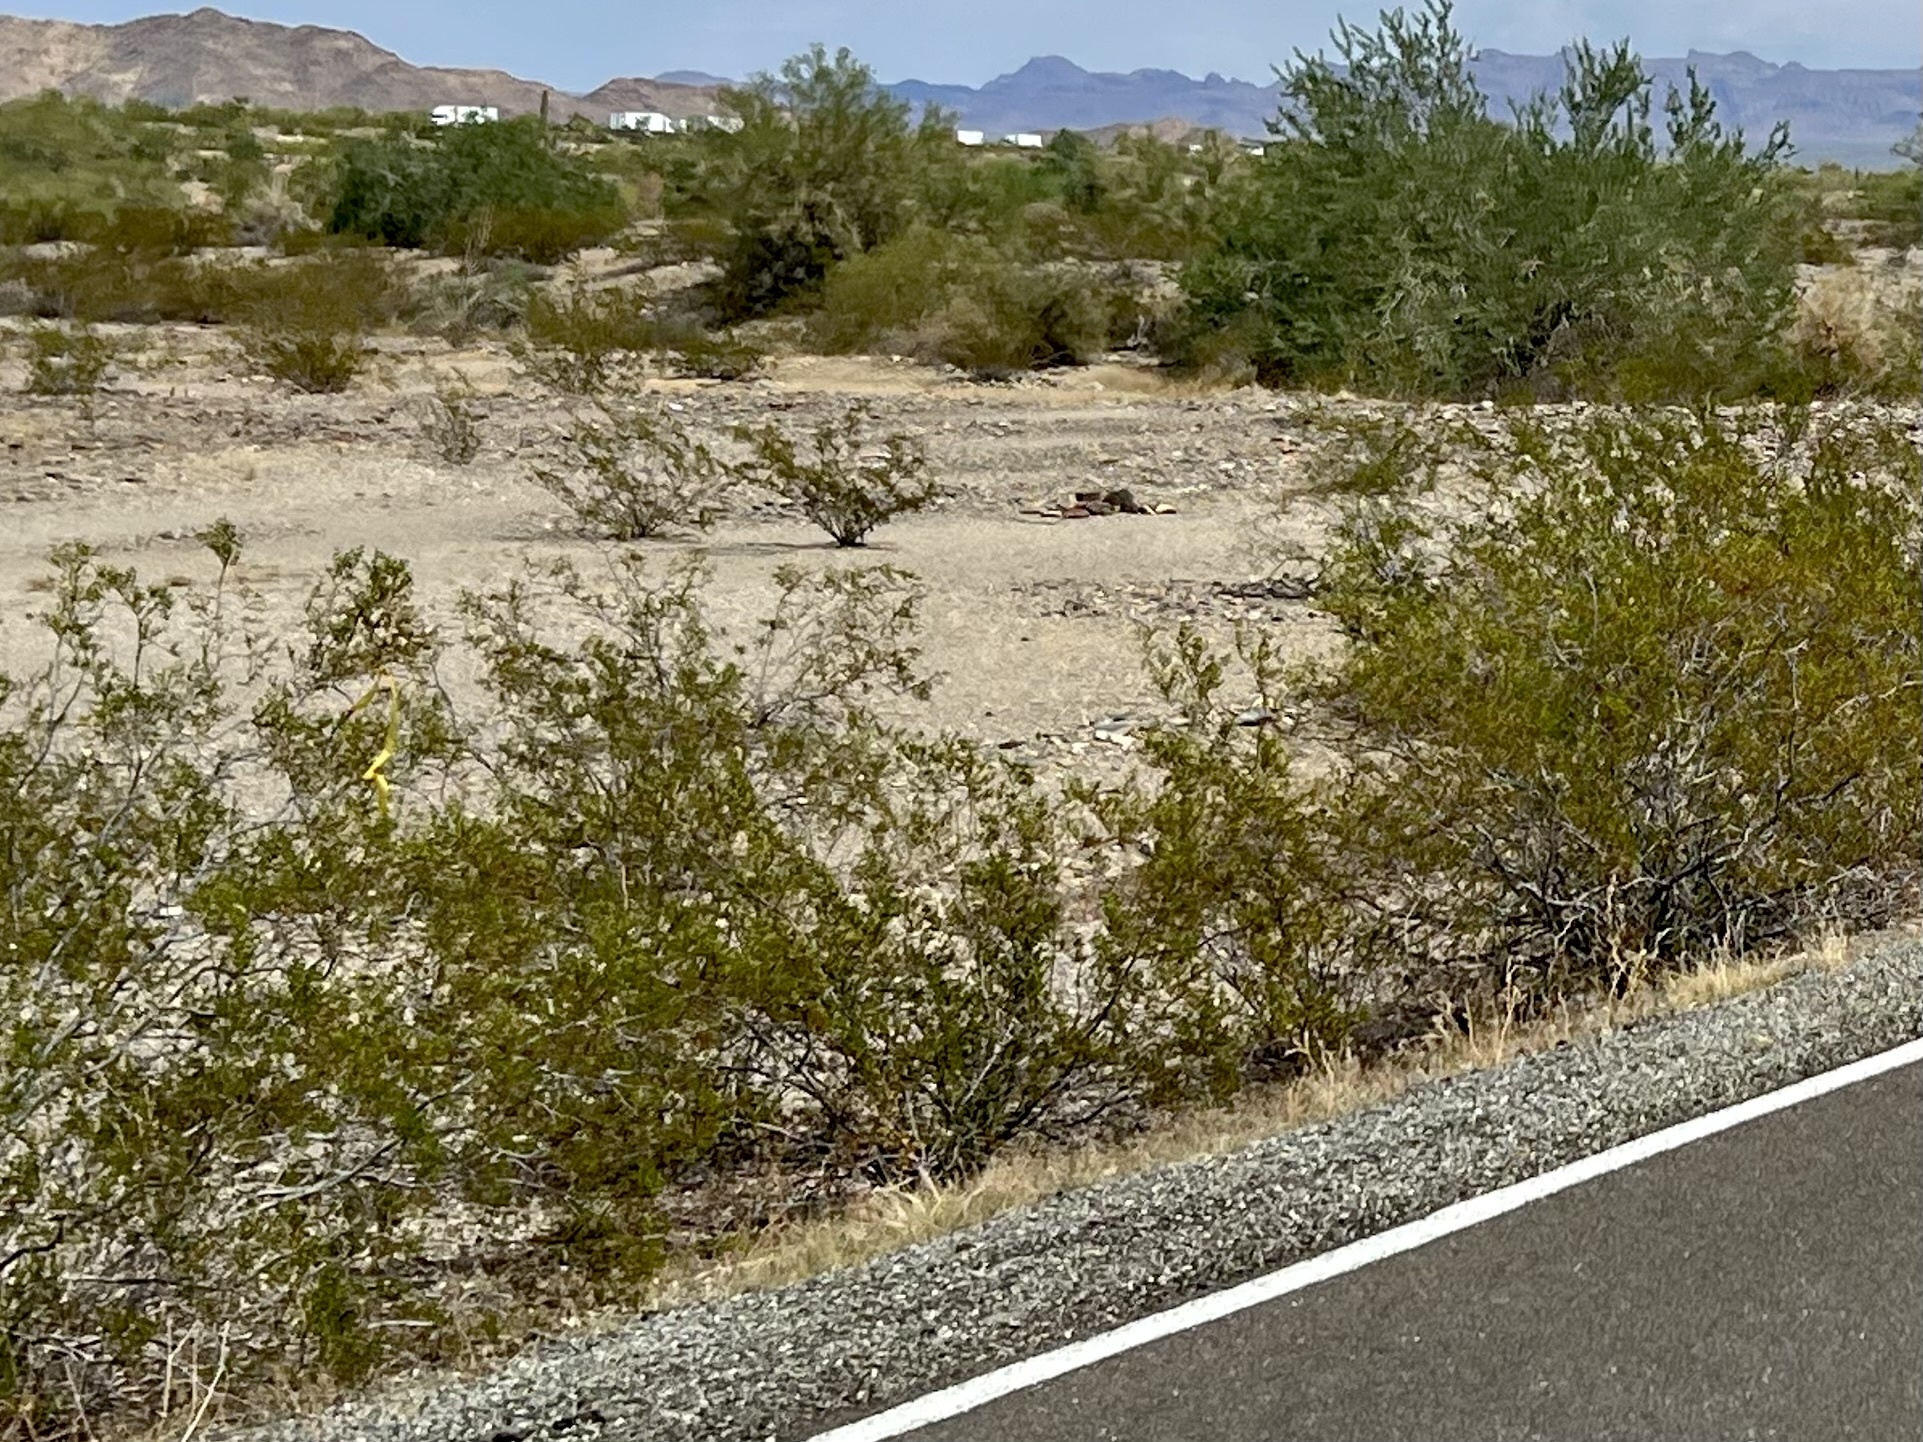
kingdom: Plantae
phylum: Tracheophyta
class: Magnoliopsida
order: Zygophyllales
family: Zygophyllaceae
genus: Larrea
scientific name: Larrea tridentata
